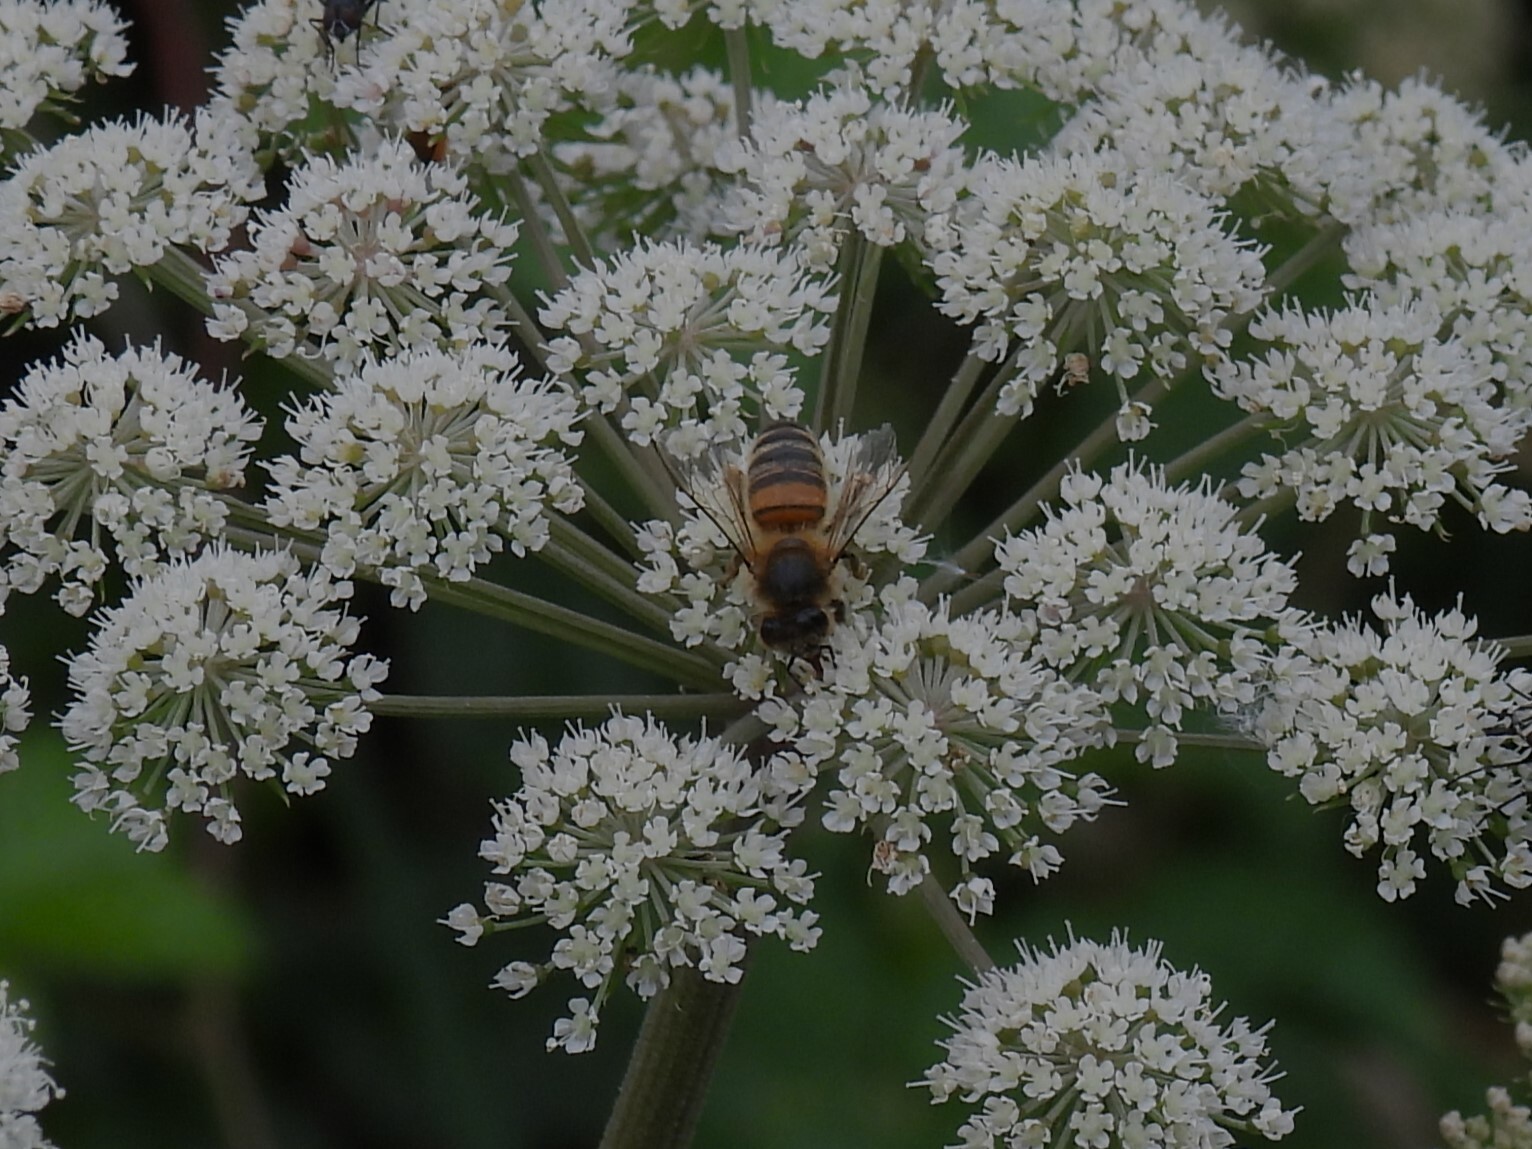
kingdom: Animalia
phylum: Arthropoda
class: Insecta
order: Hymenoptera
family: Apidae
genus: Apis
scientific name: Apis mellifera
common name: Honey bee
